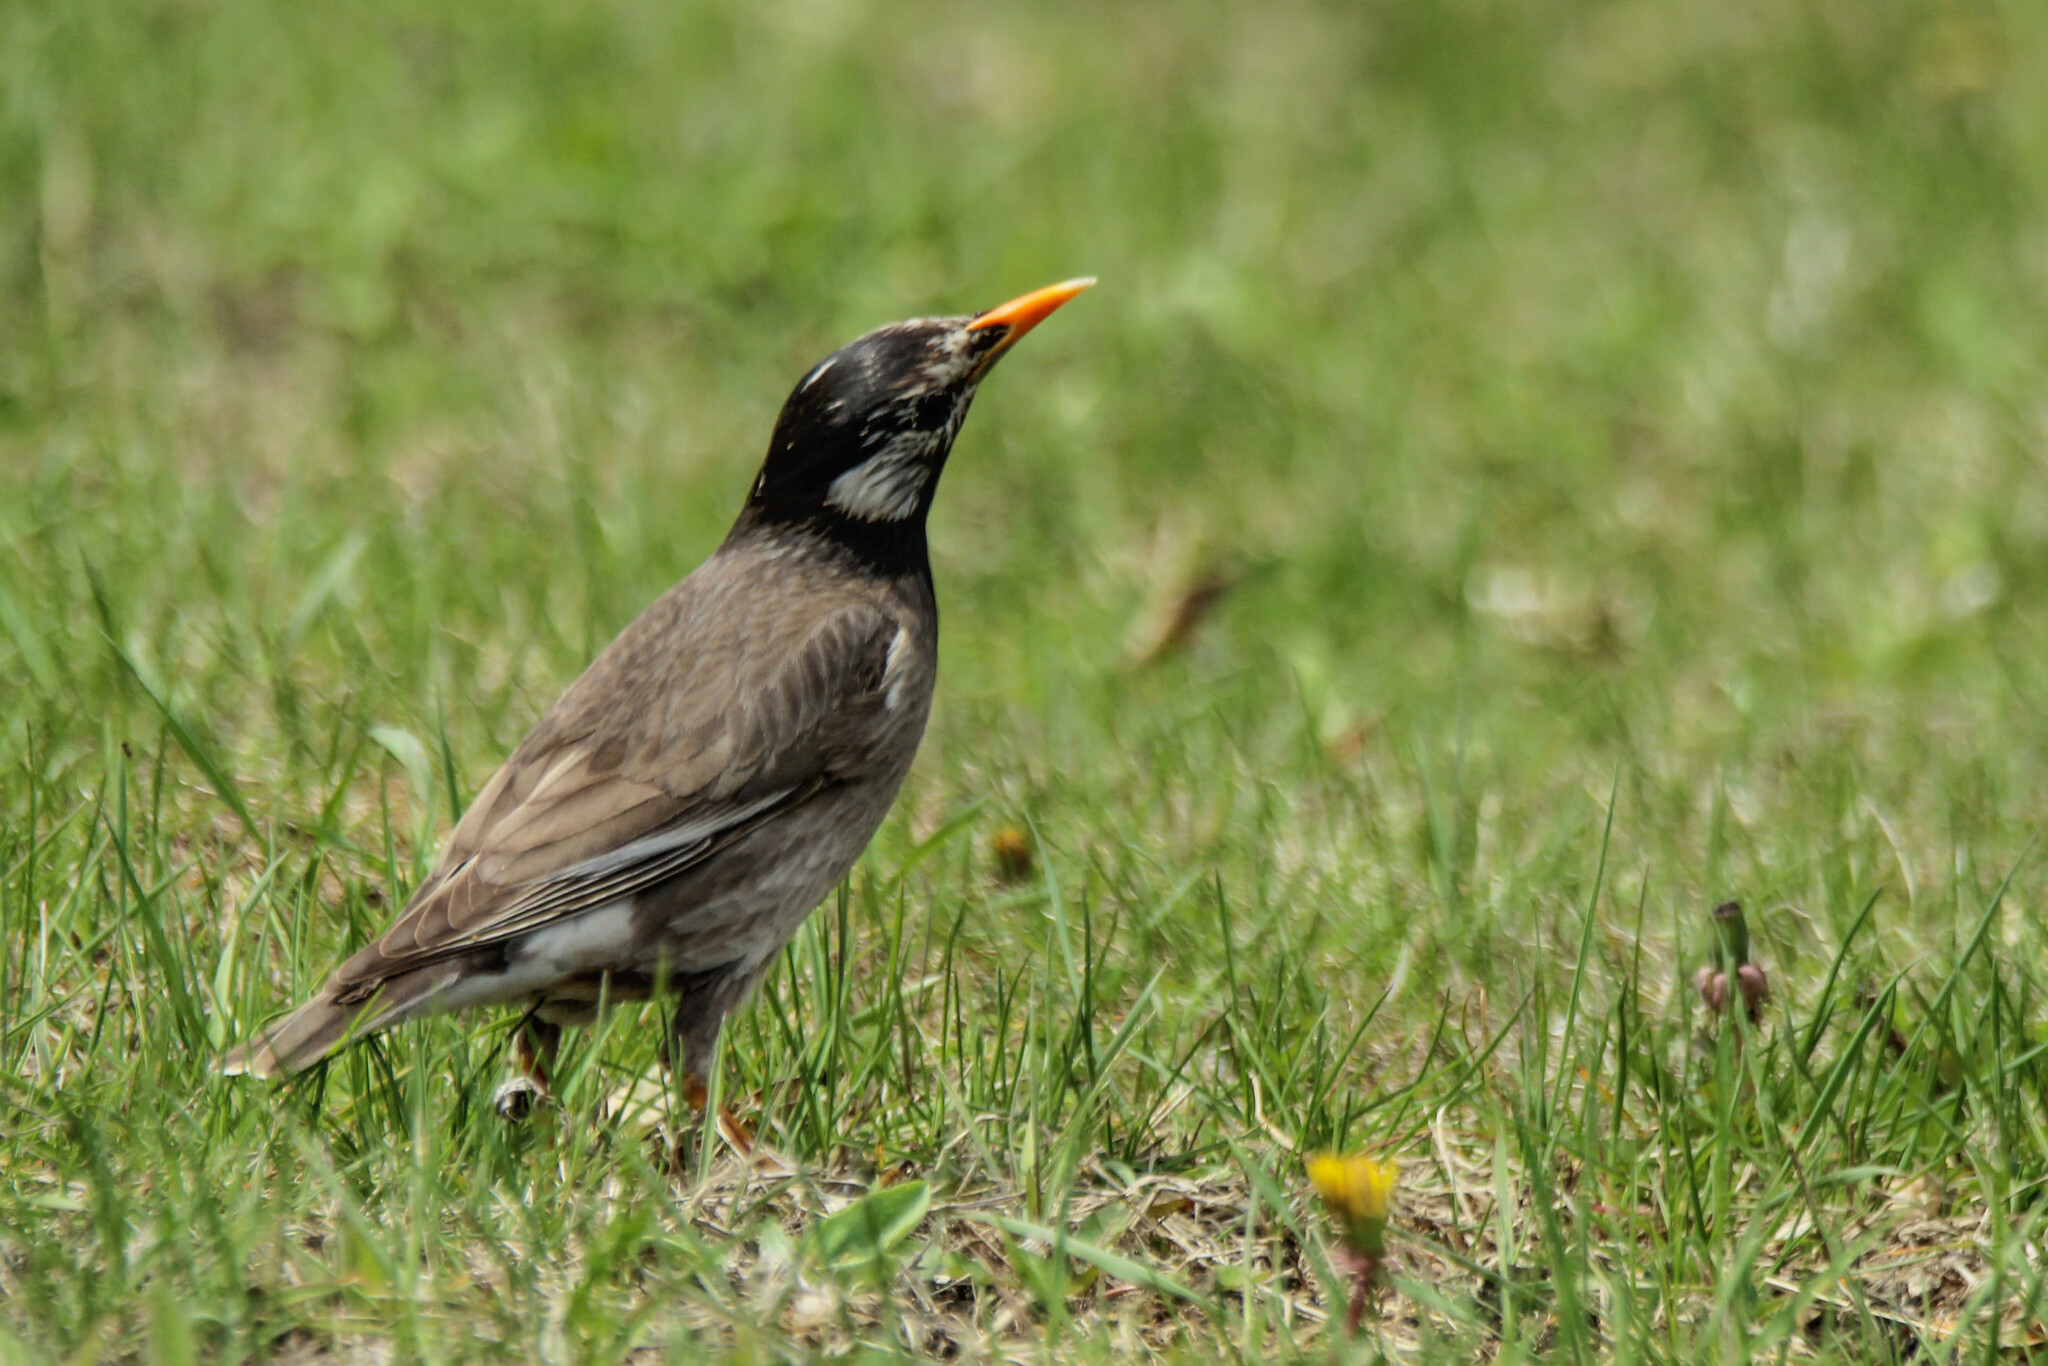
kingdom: Animalia
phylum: Chordata
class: Aves
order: Passeriformes
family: Sturnidae
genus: Spodiopsar
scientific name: Spodiopsar cineraceus
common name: White-cheeked starling
